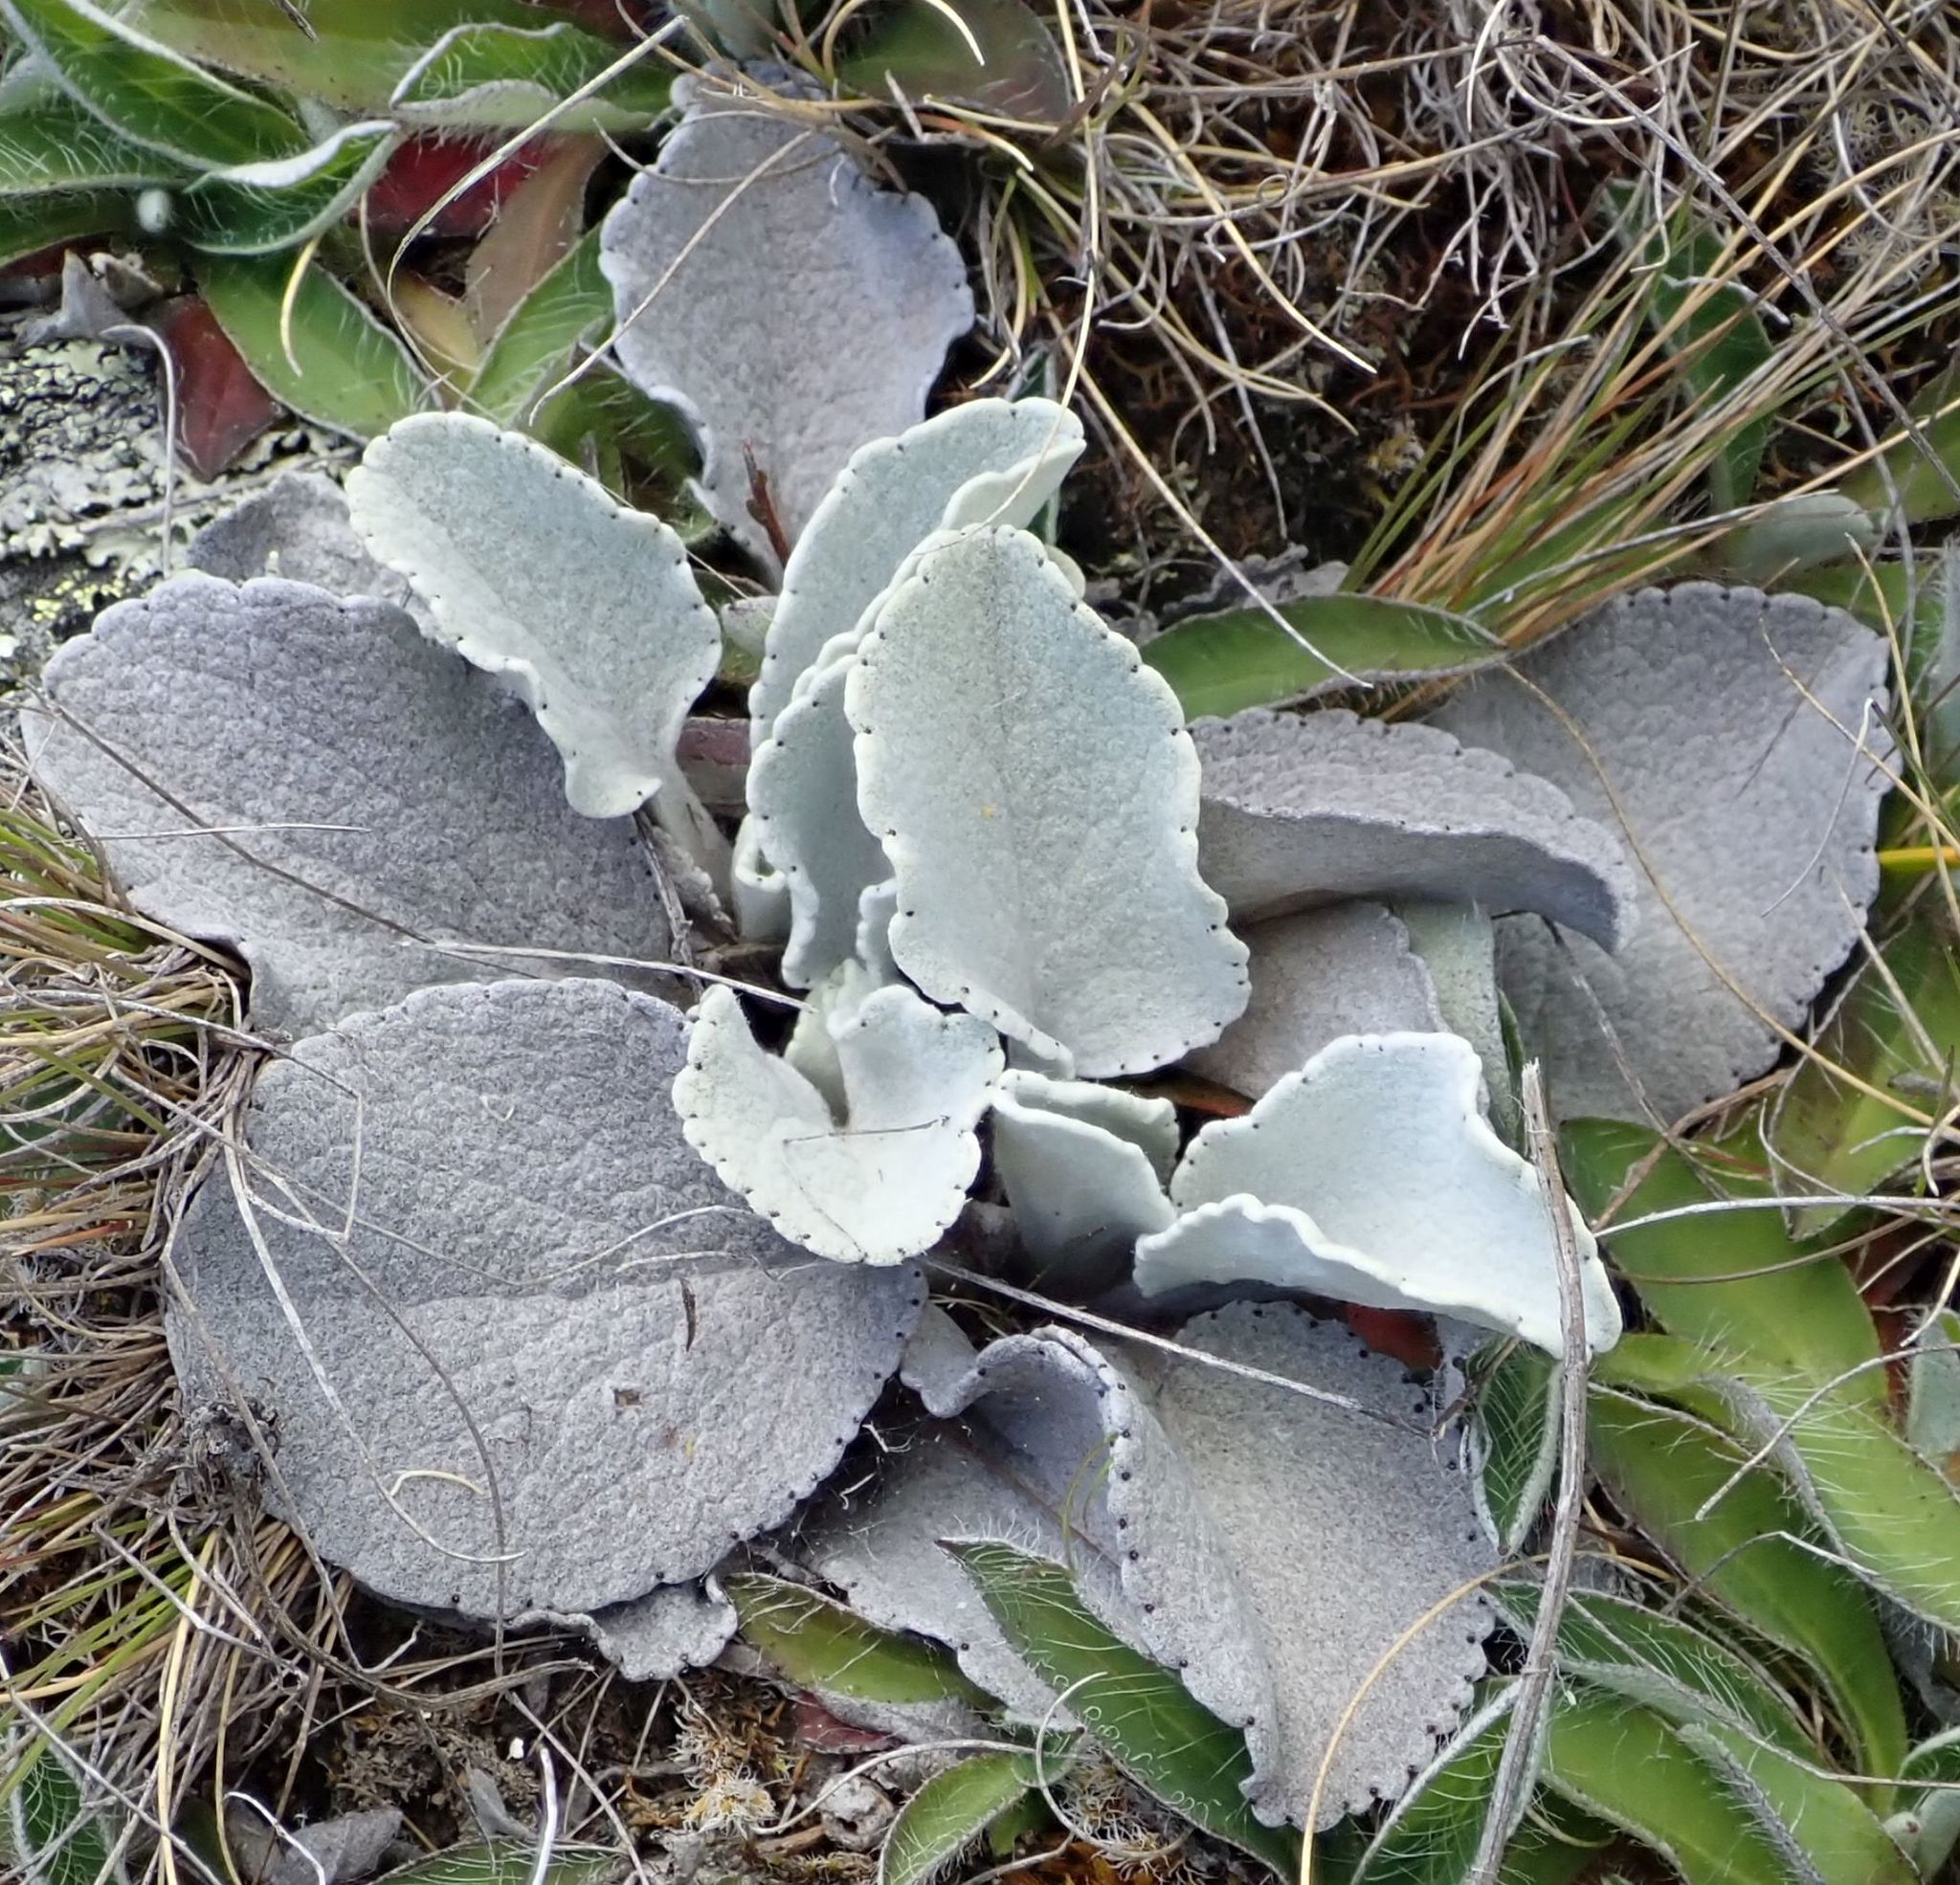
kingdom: Plantae
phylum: Tracheophyta
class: Magnoliopsida
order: Asterales
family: Asteraceae
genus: Brachyglottis
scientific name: Brachyglottis haastii
